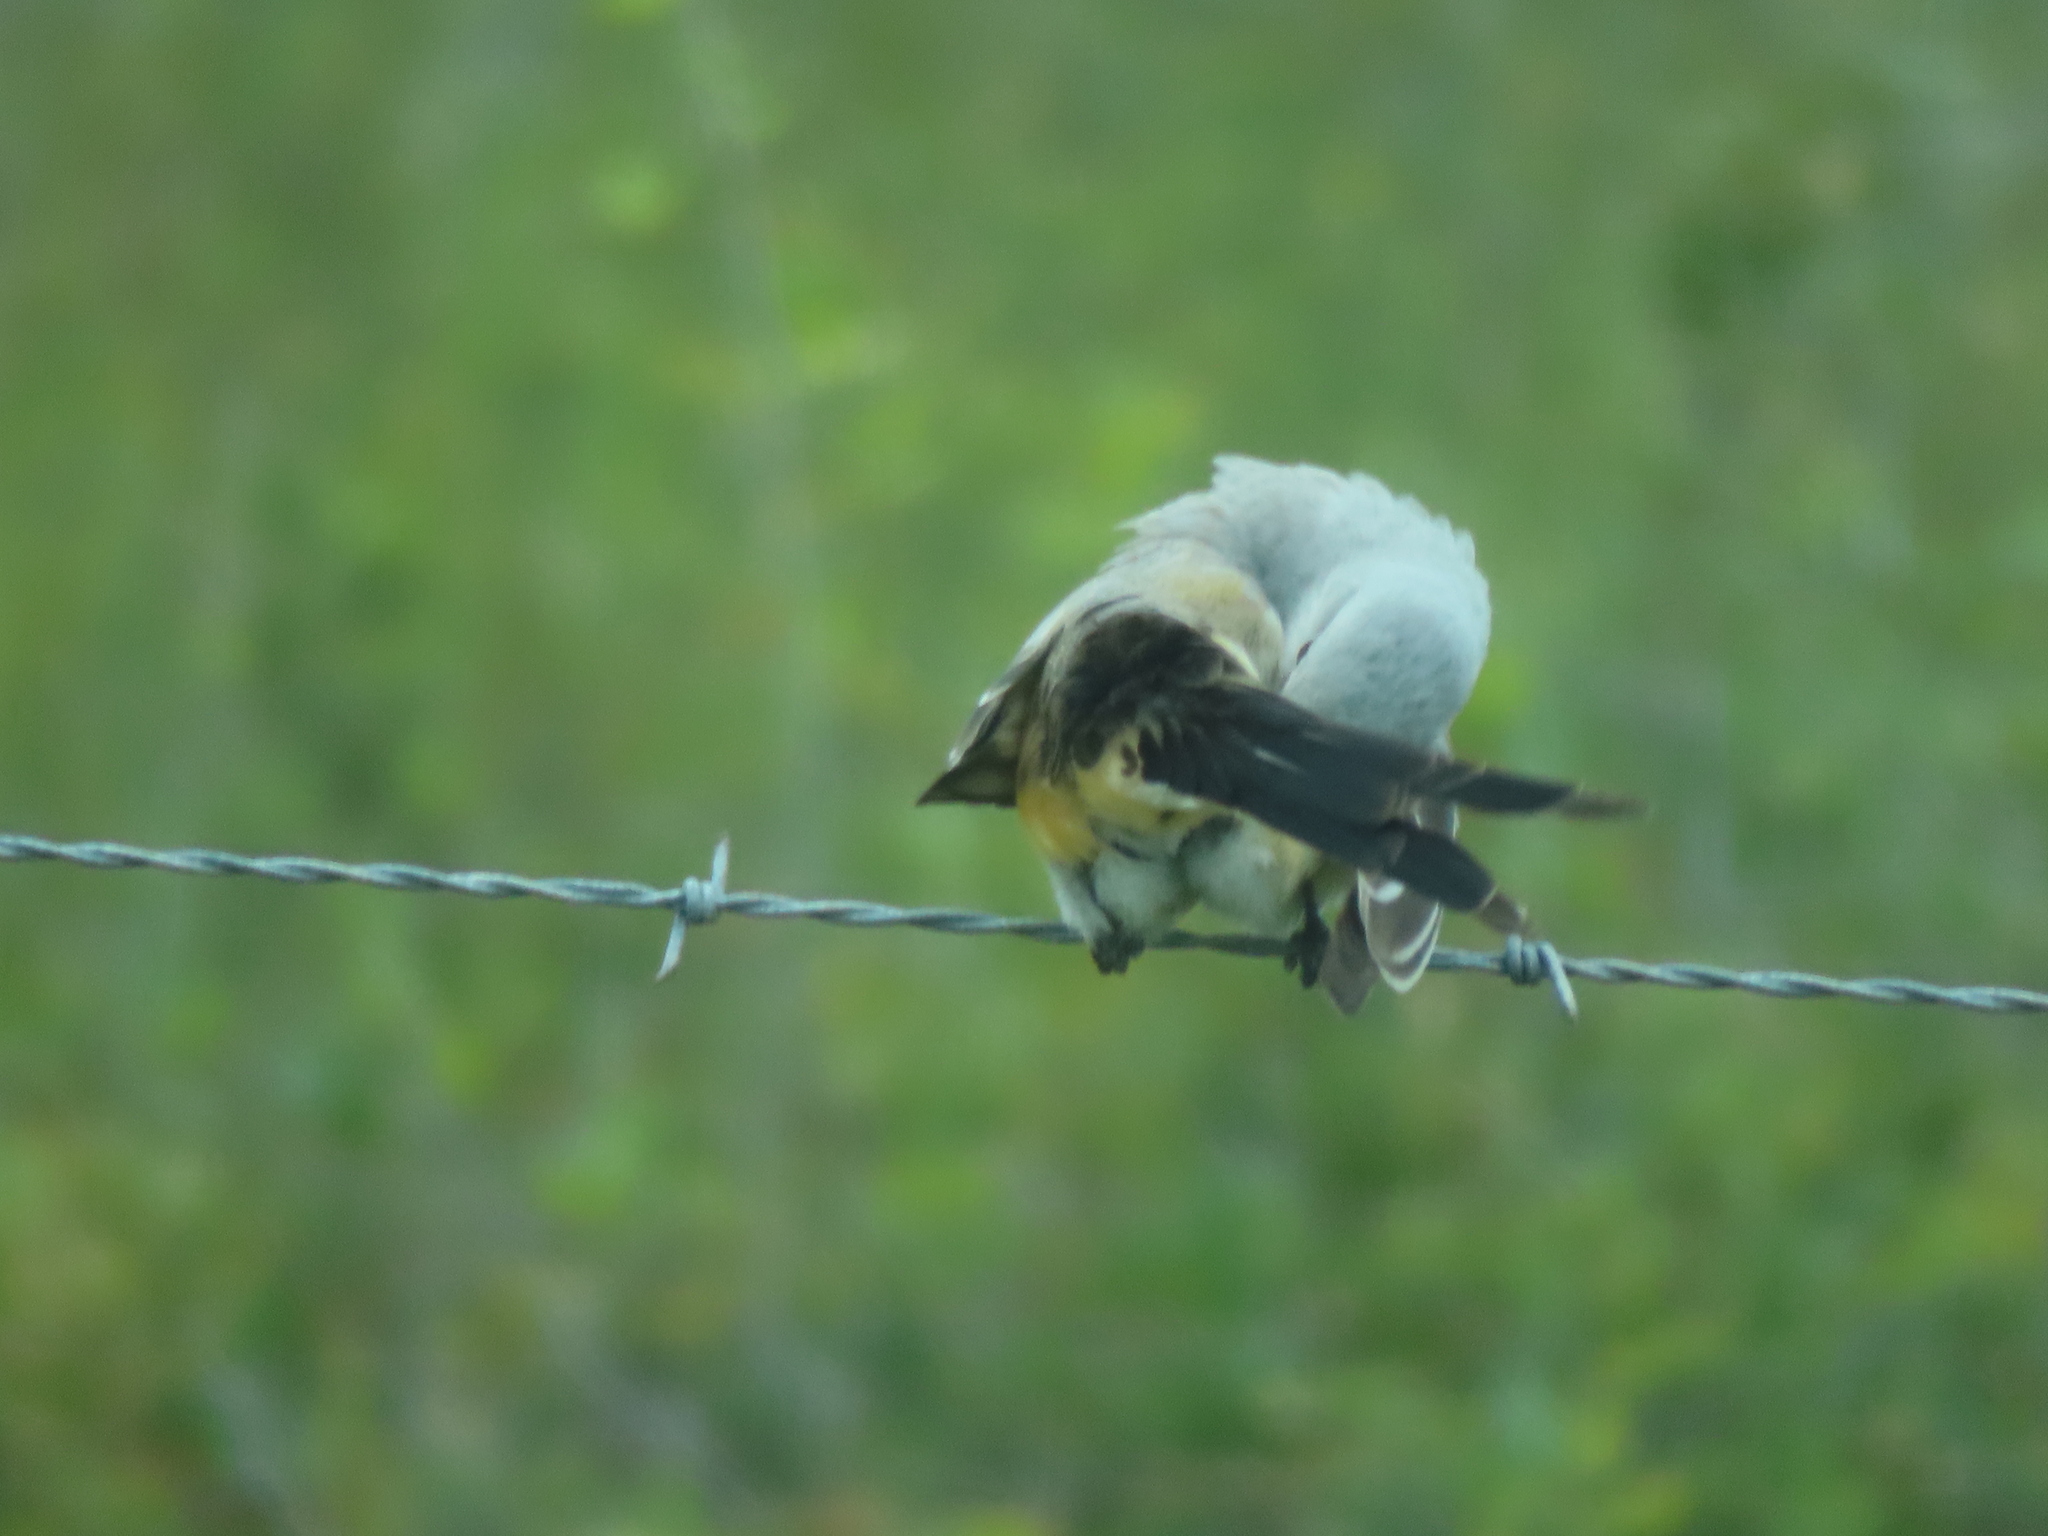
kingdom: Animalia
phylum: Chordata
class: Aves
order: Passeriformes
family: Tyrannidae
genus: Tyrannus
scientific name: Tyrannus forficatus
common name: Scissor-tailed flycatcher
